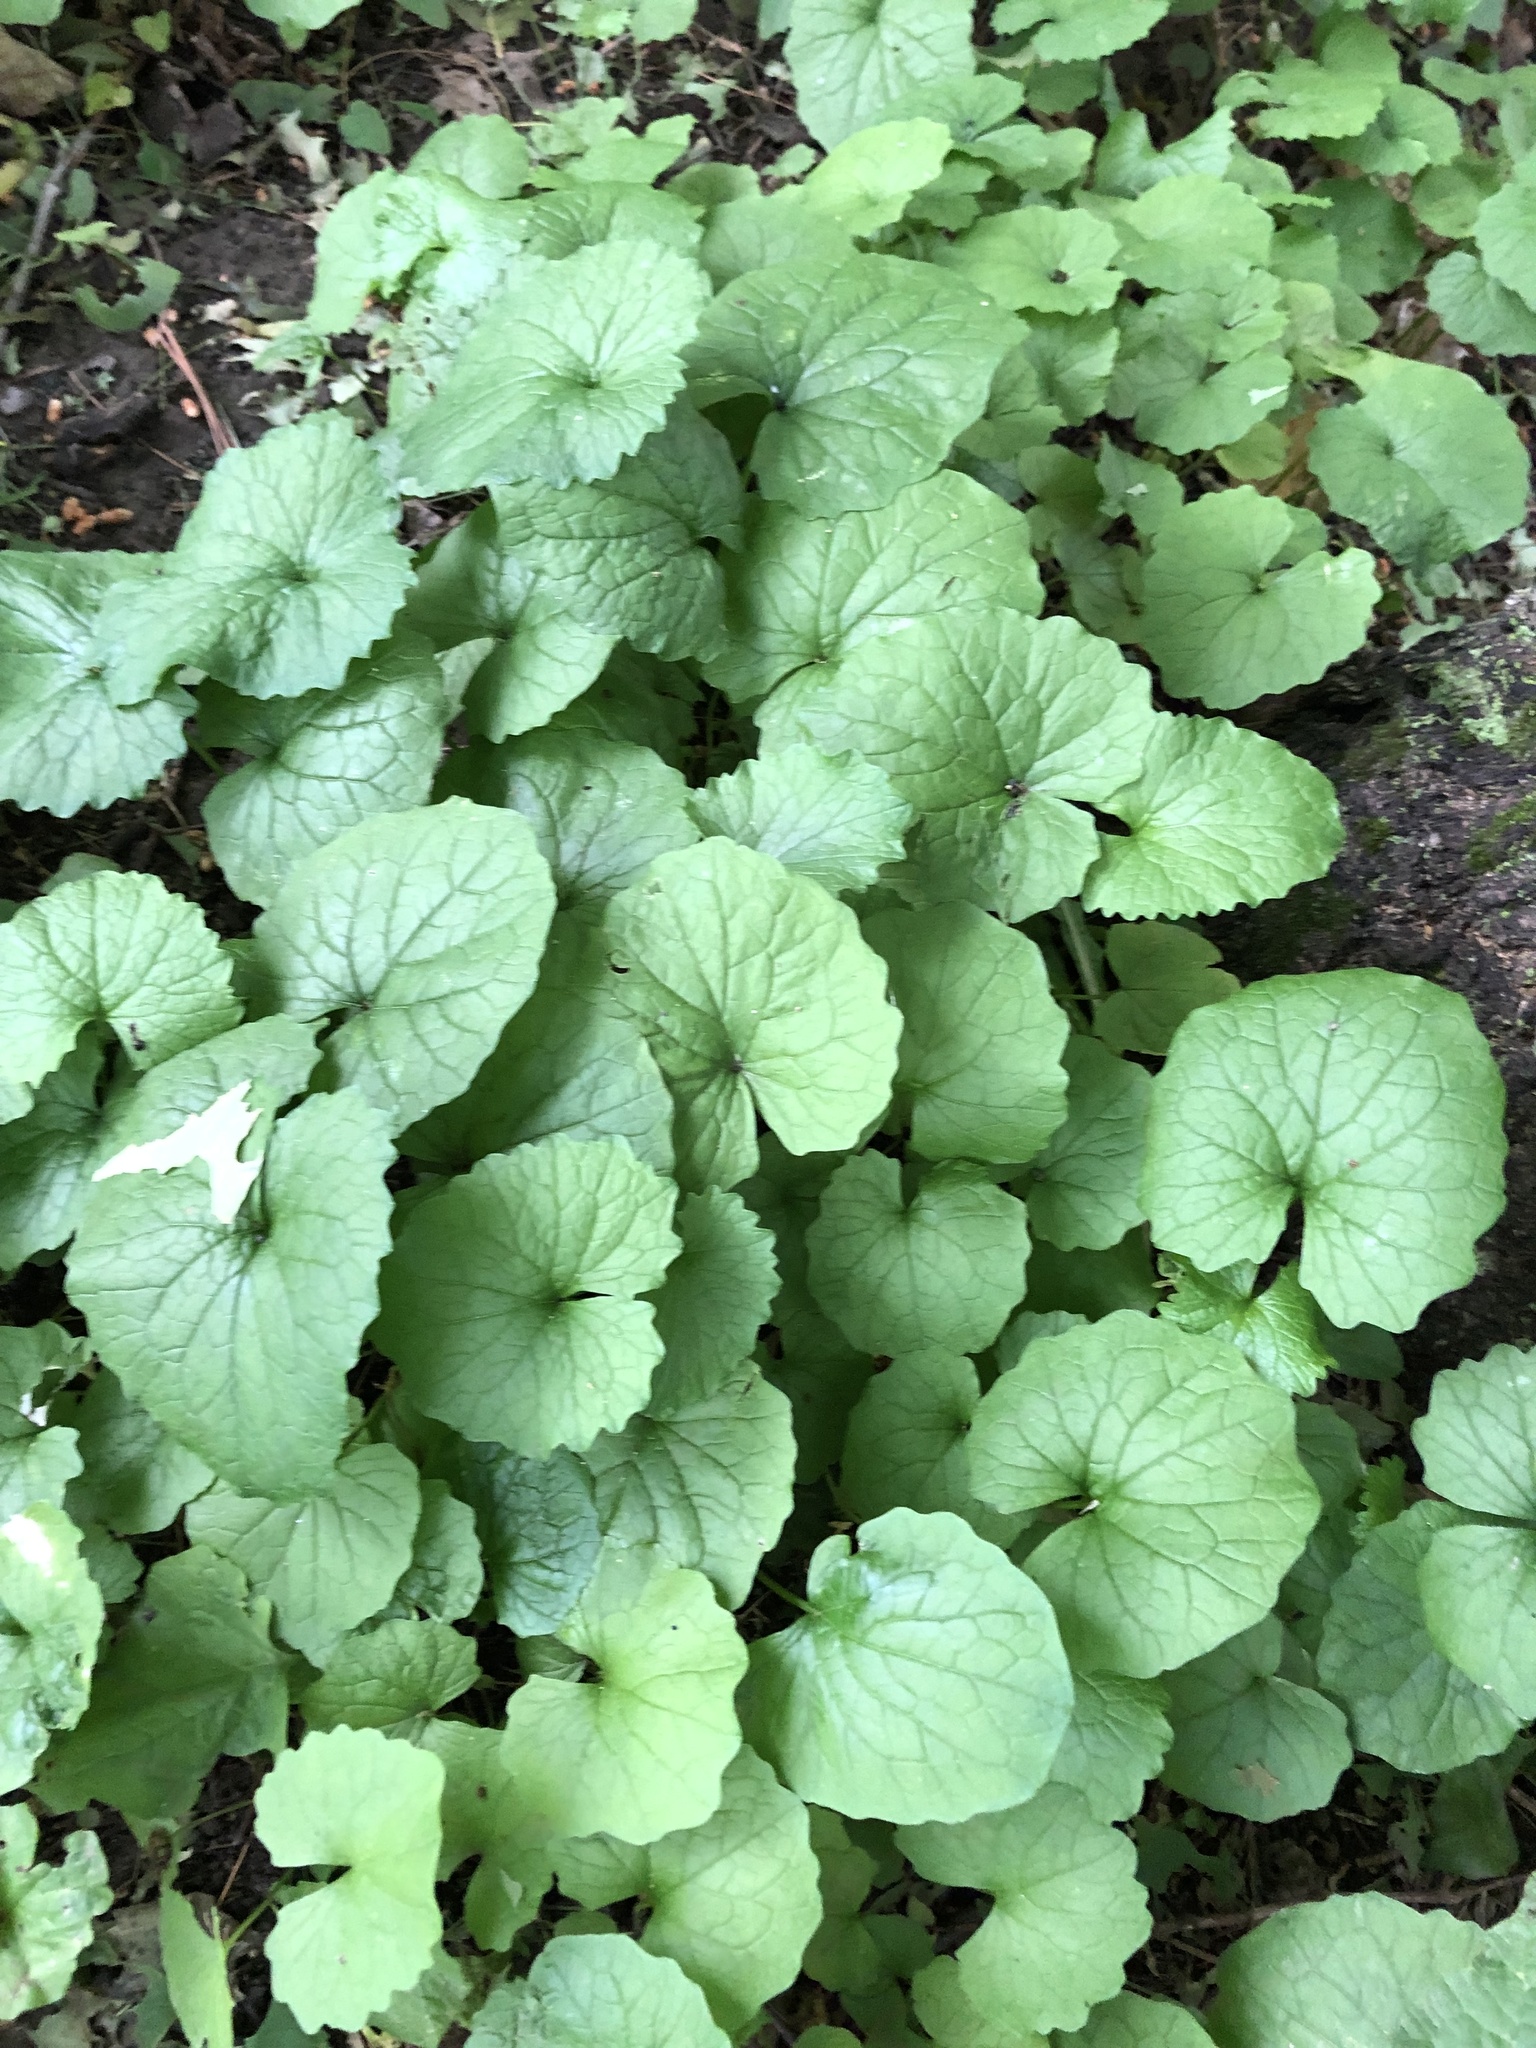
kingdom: Plantae
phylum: Tracheophyta
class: Magnoliopsida
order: Brassicales
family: Brassicaceae
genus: Alliaria
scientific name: Alliaria petiolata
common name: Garlic mustard
